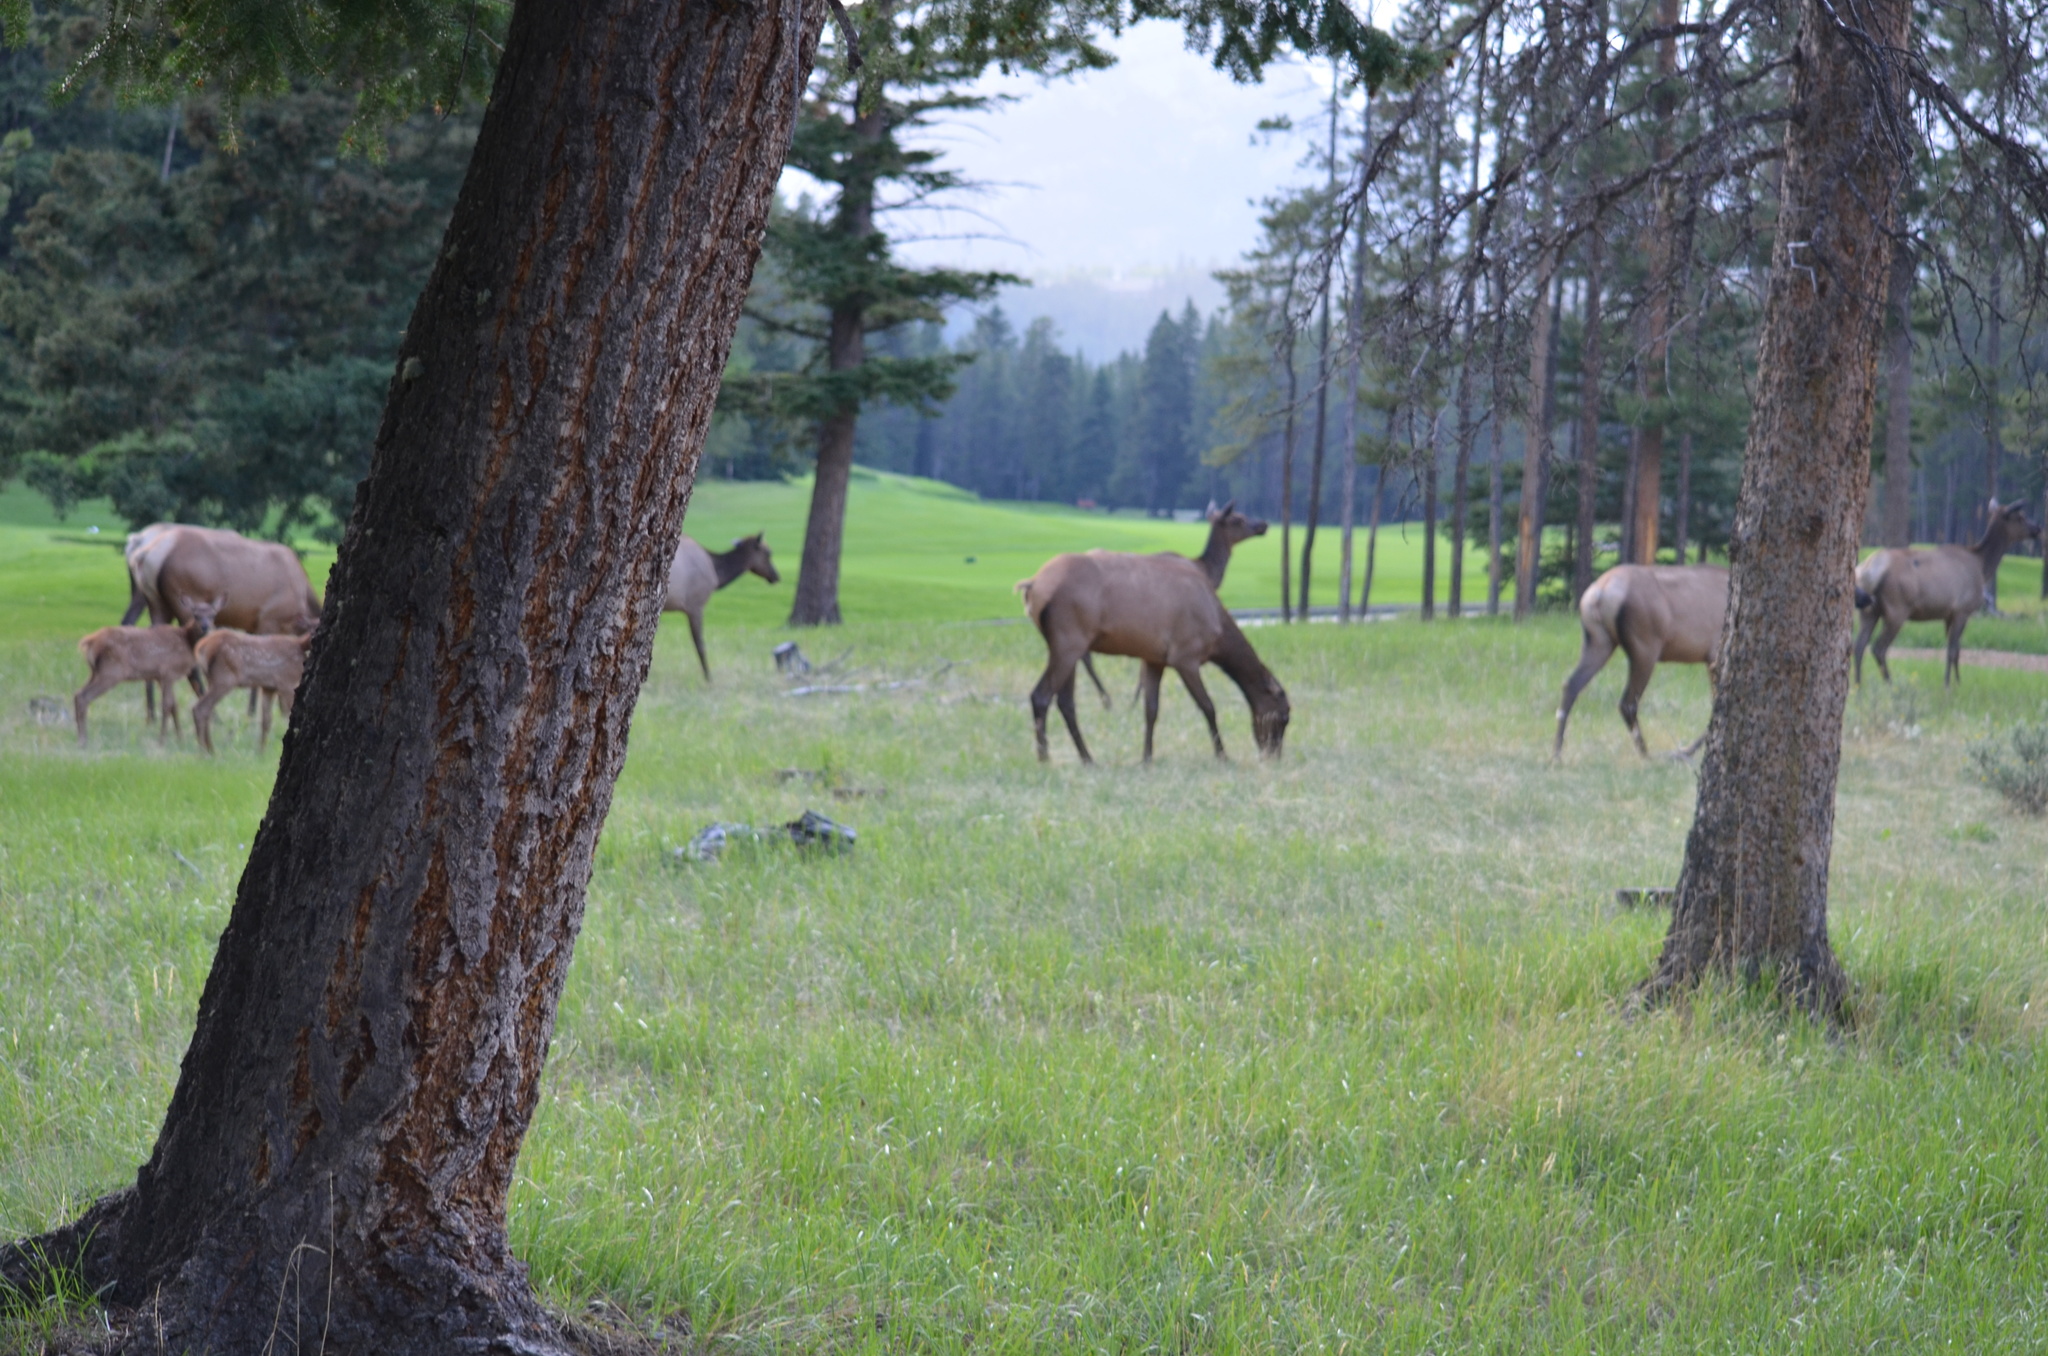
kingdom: Animalia
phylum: Chordata
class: Mammalia
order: Artiodactyla
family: Cervidae
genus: Cervus
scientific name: Cervus elaphus
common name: Red deer
